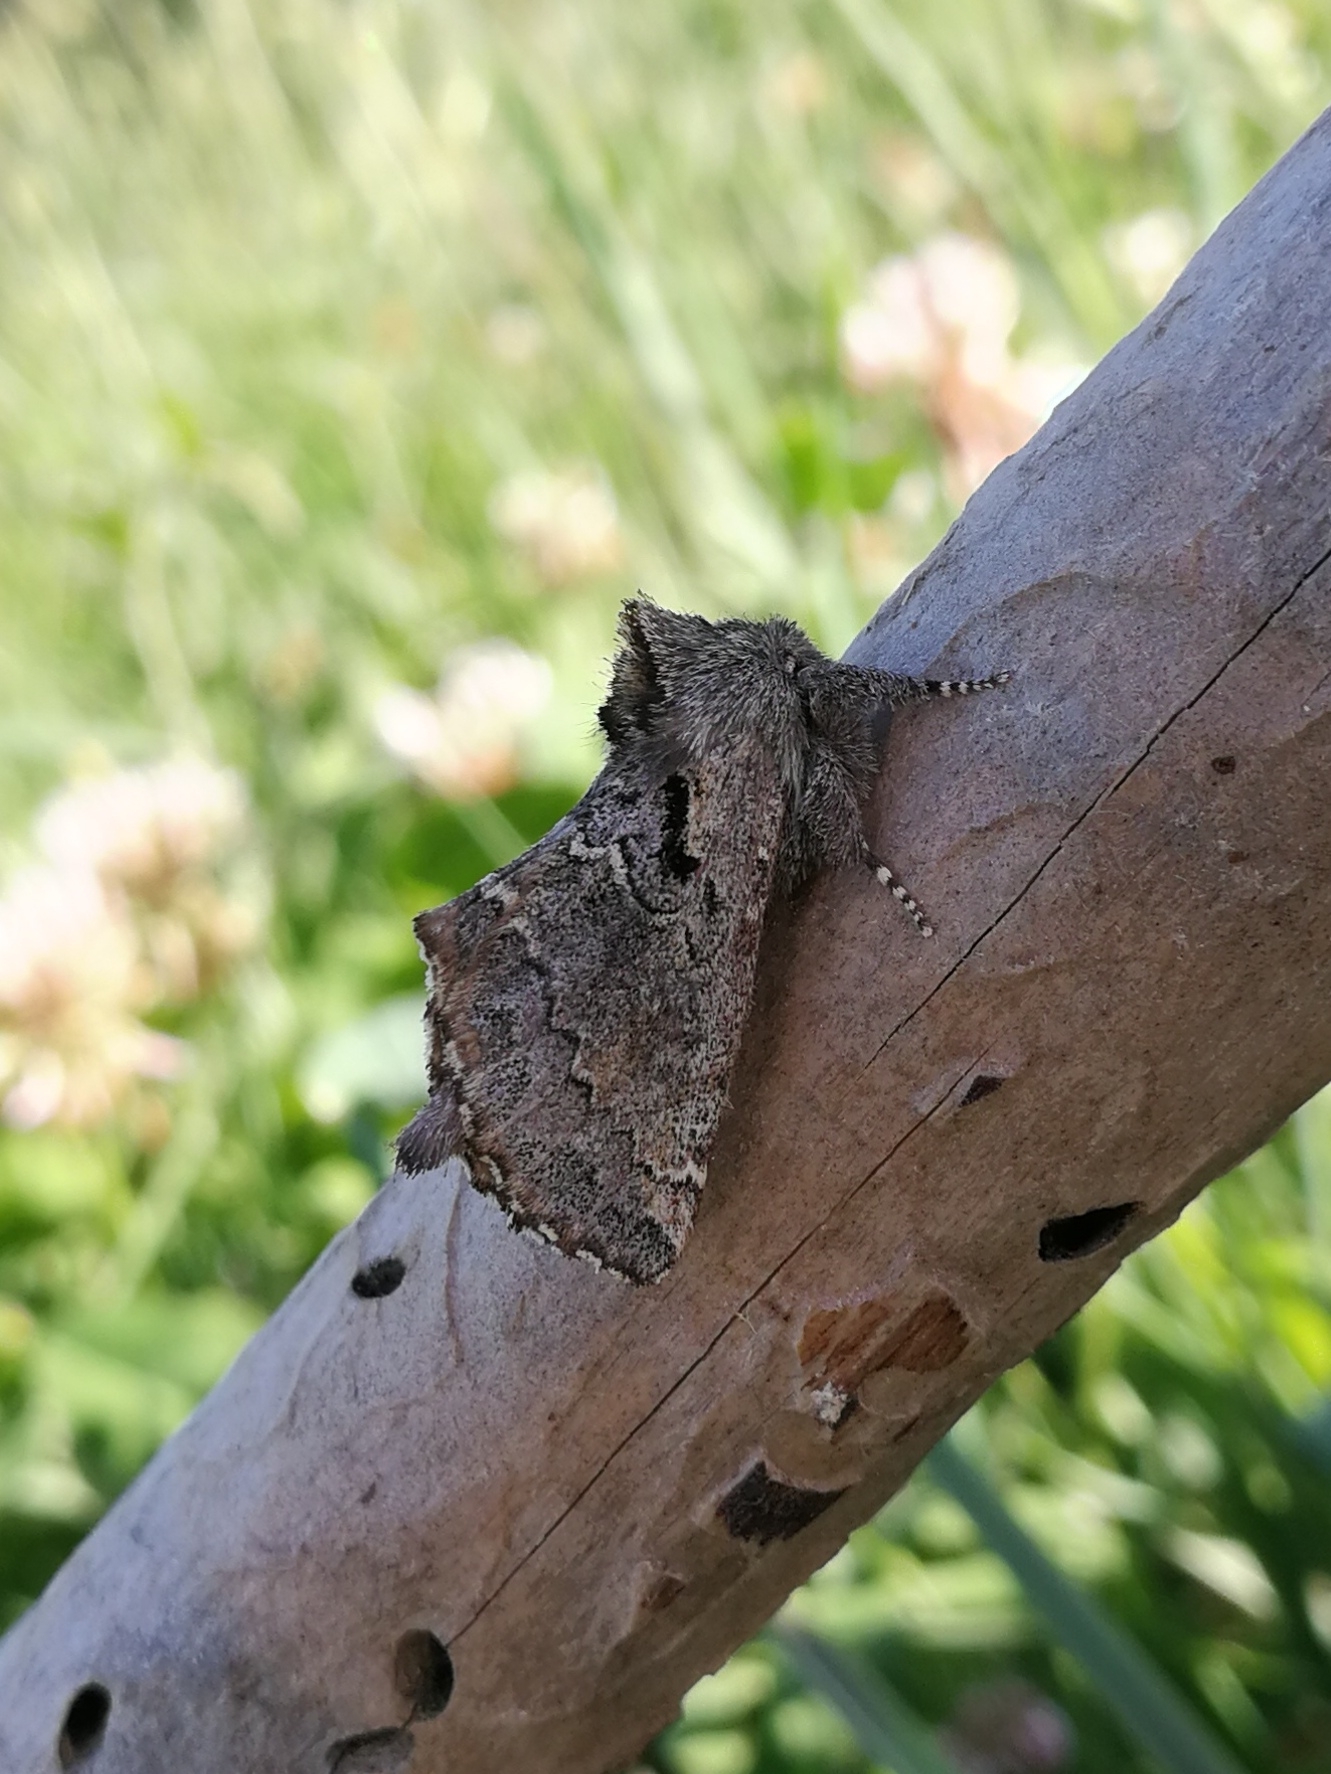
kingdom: Animalia
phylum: Arthropoda
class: Insecta
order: Lepidoptera
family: Notodontidae
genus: Rhegmatophila
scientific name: Rhegmatophila alpina
